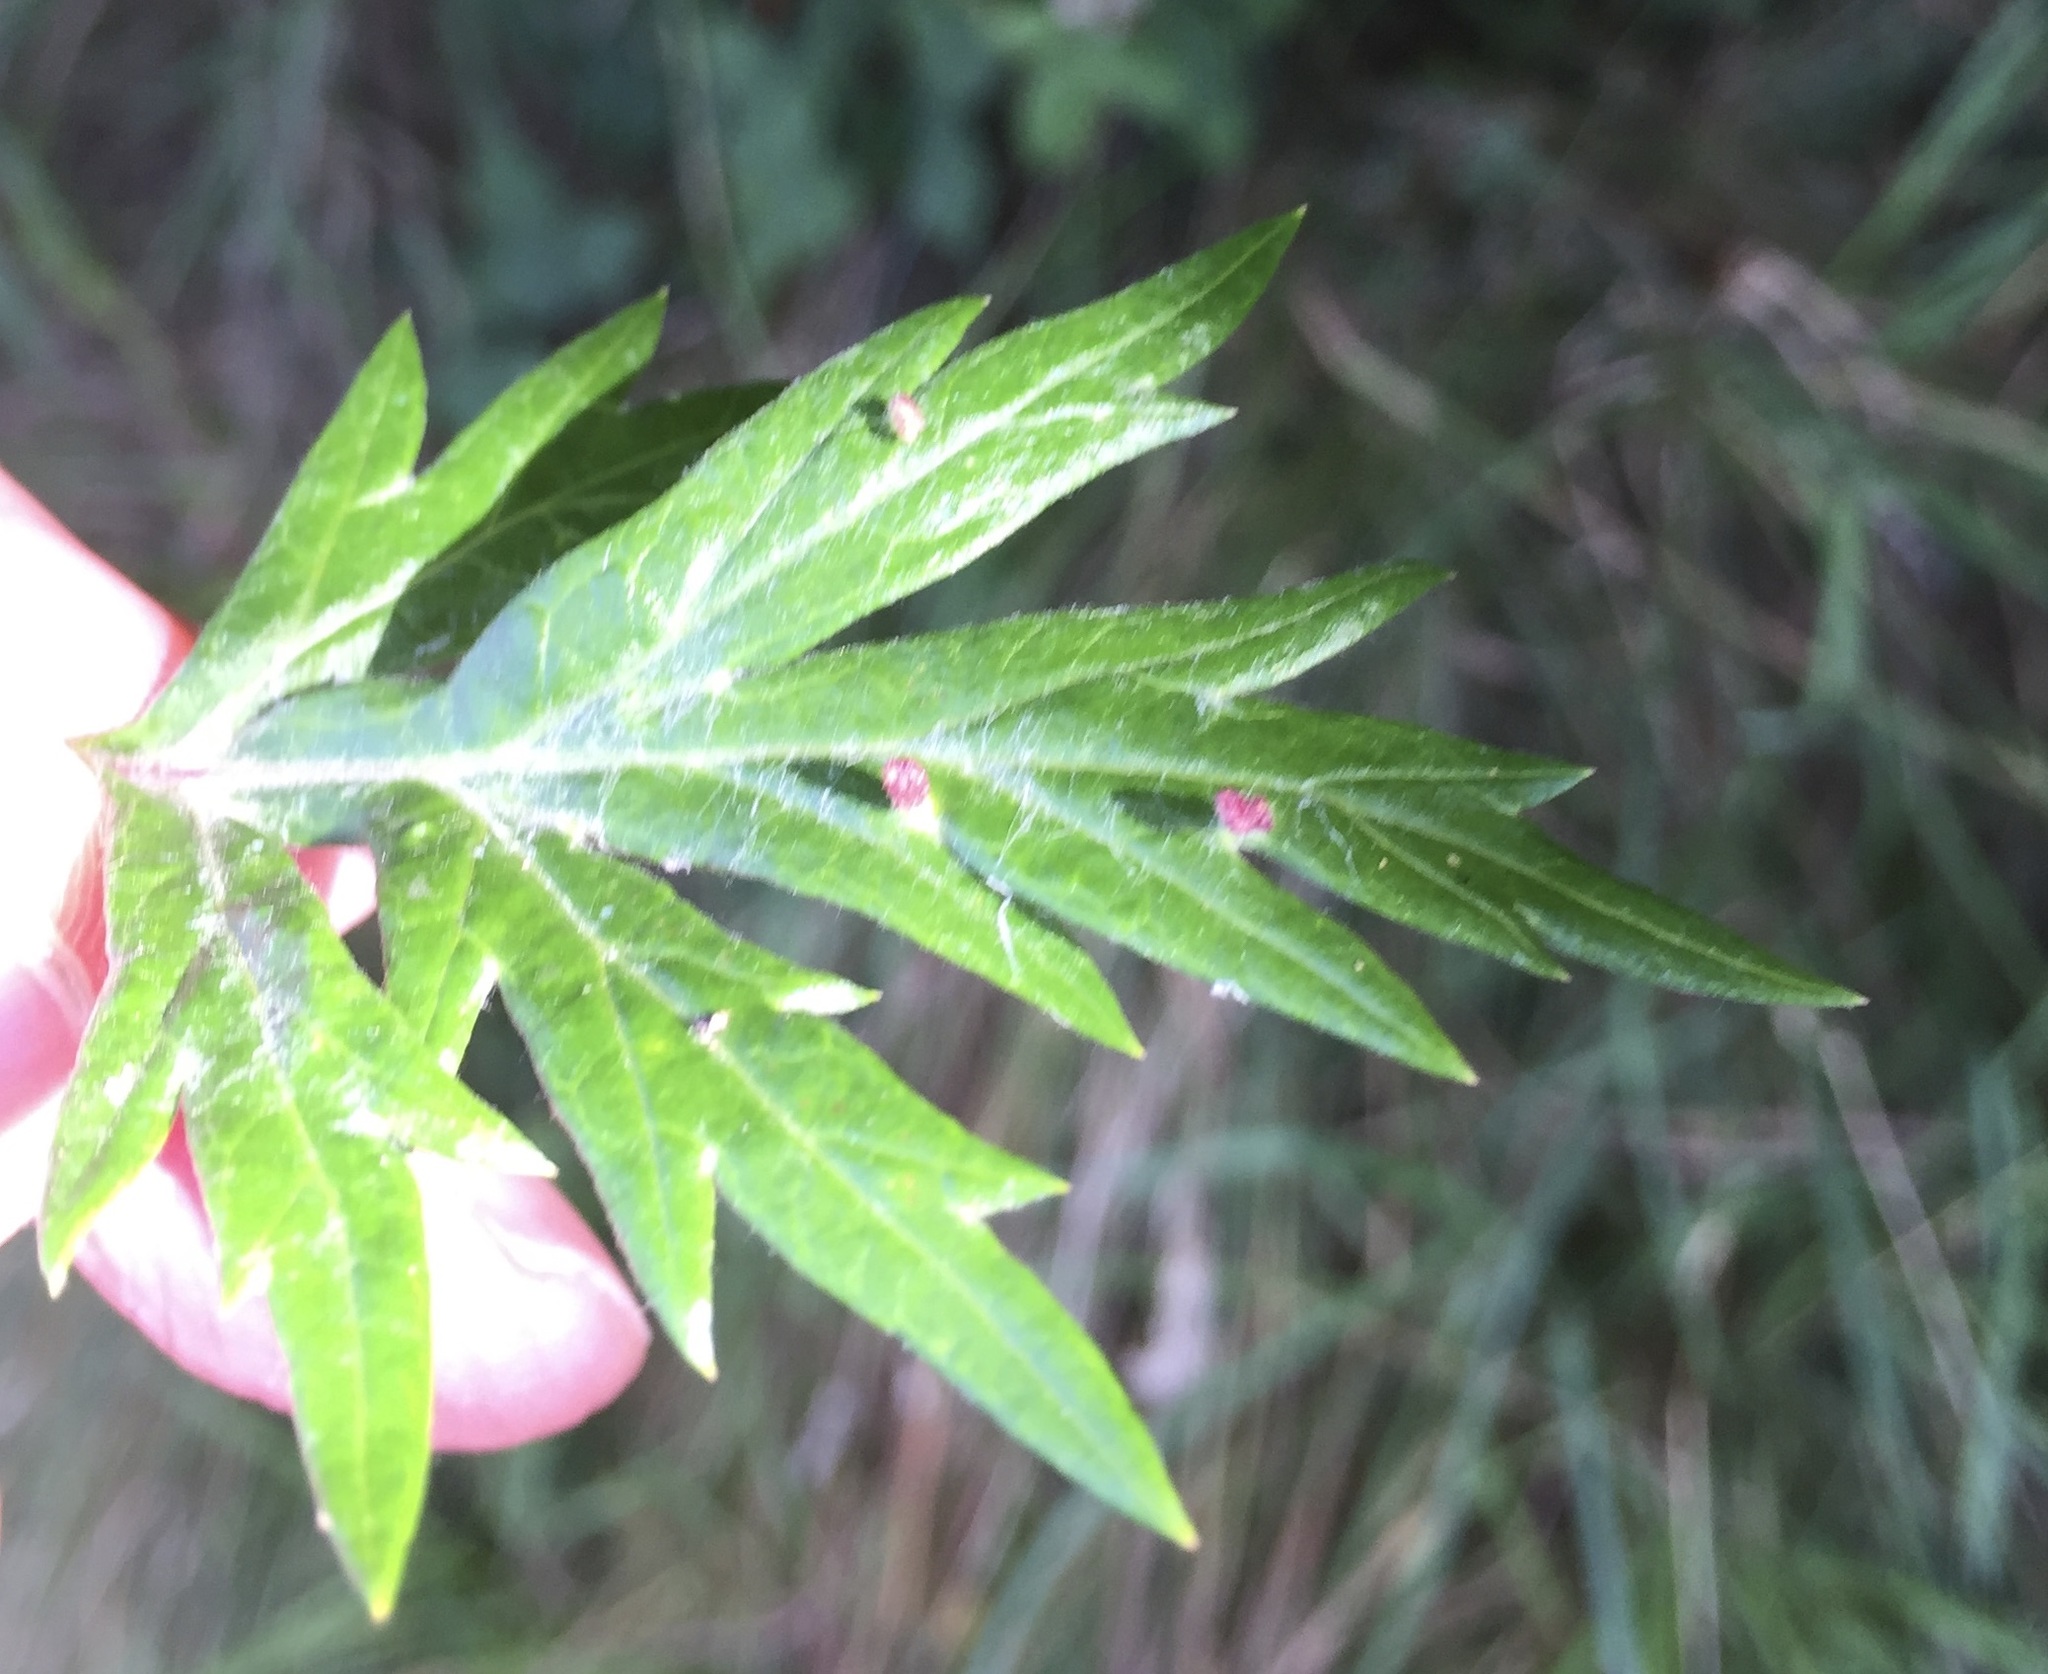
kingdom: Animalia
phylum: Arthropoda
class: Insecta
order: Hemiptera
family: Aphididae
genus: Cryptosiphum
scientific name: Cryptosiphum artemisiae
